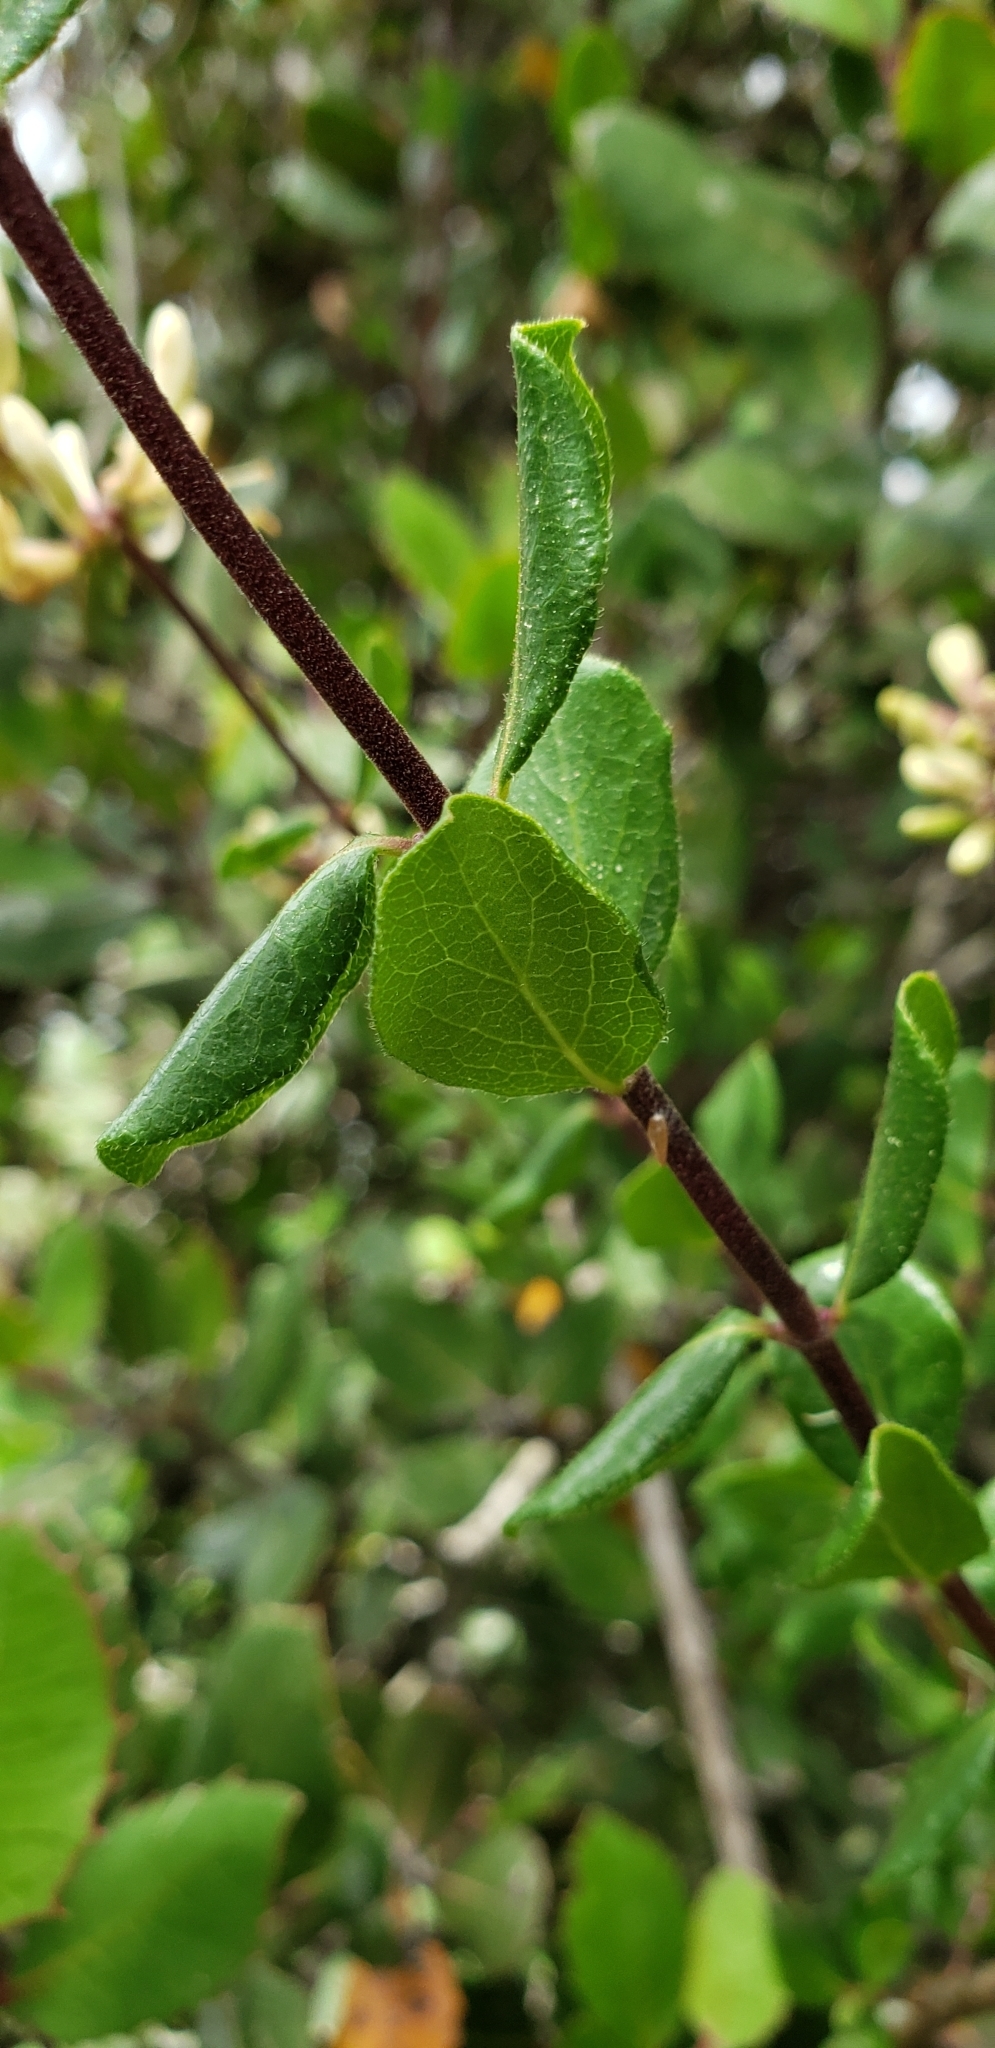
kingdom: Plantae
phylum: Tracheophyta
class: Magnoliopsida
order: Dipsacales
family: Caprifoliaceae
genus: Lonicera
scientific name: Lonicera subspicata
